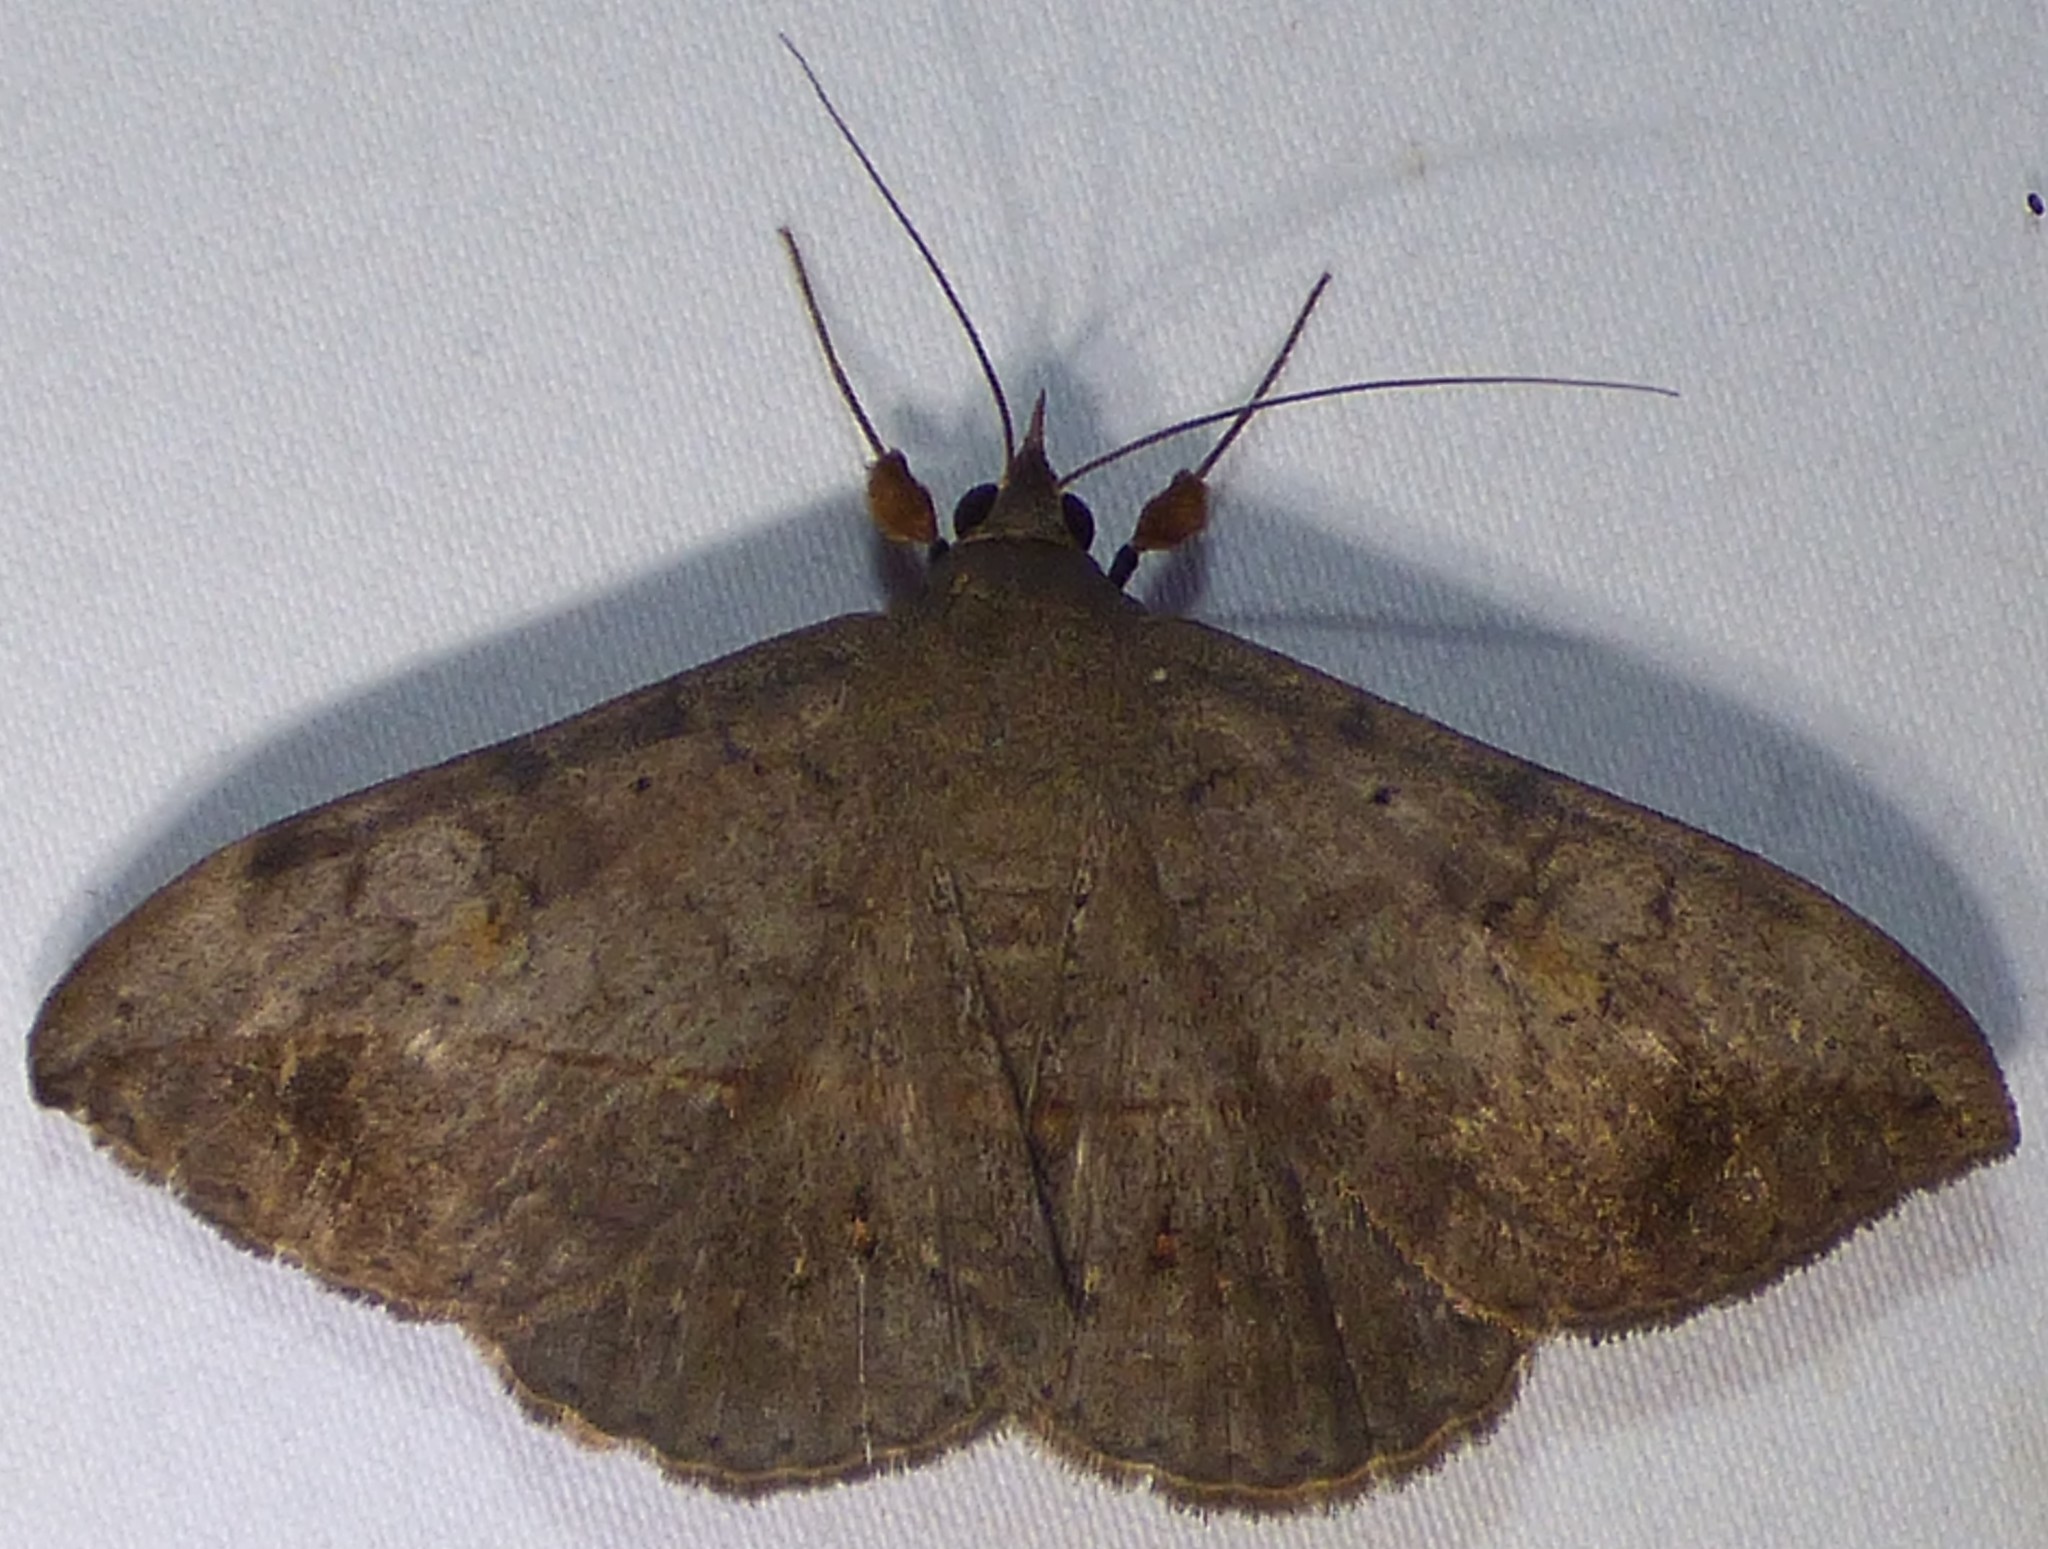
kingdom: Animalia
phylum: Arthropoda
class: Insecta
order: Lepidoptera
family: Erebidae
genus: Anticarsia
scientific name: Anticarsia gemmatalis
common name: Cutworm moth
